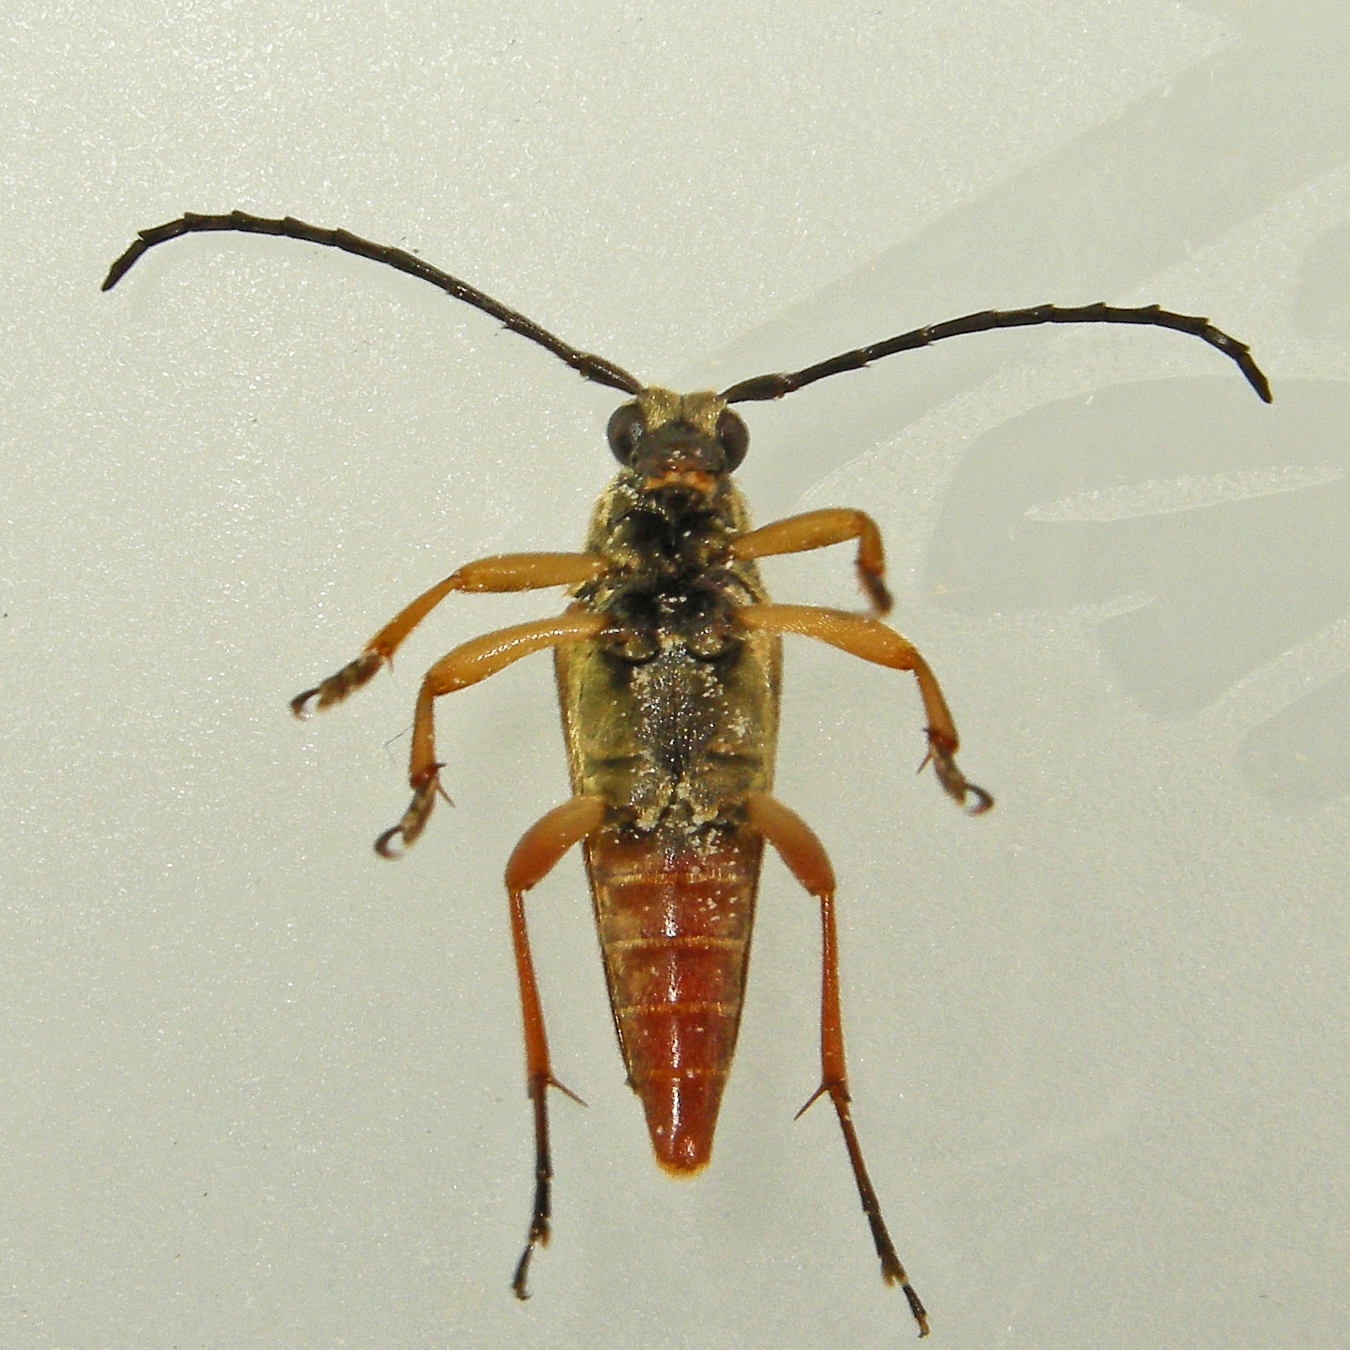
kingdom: Animalia
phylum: Arthropoda
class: Insecta
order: Coleoptera
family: Cerambycidae
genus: Typocerus
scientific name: Typocerus velutinus
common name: Banded longhorn beetle
